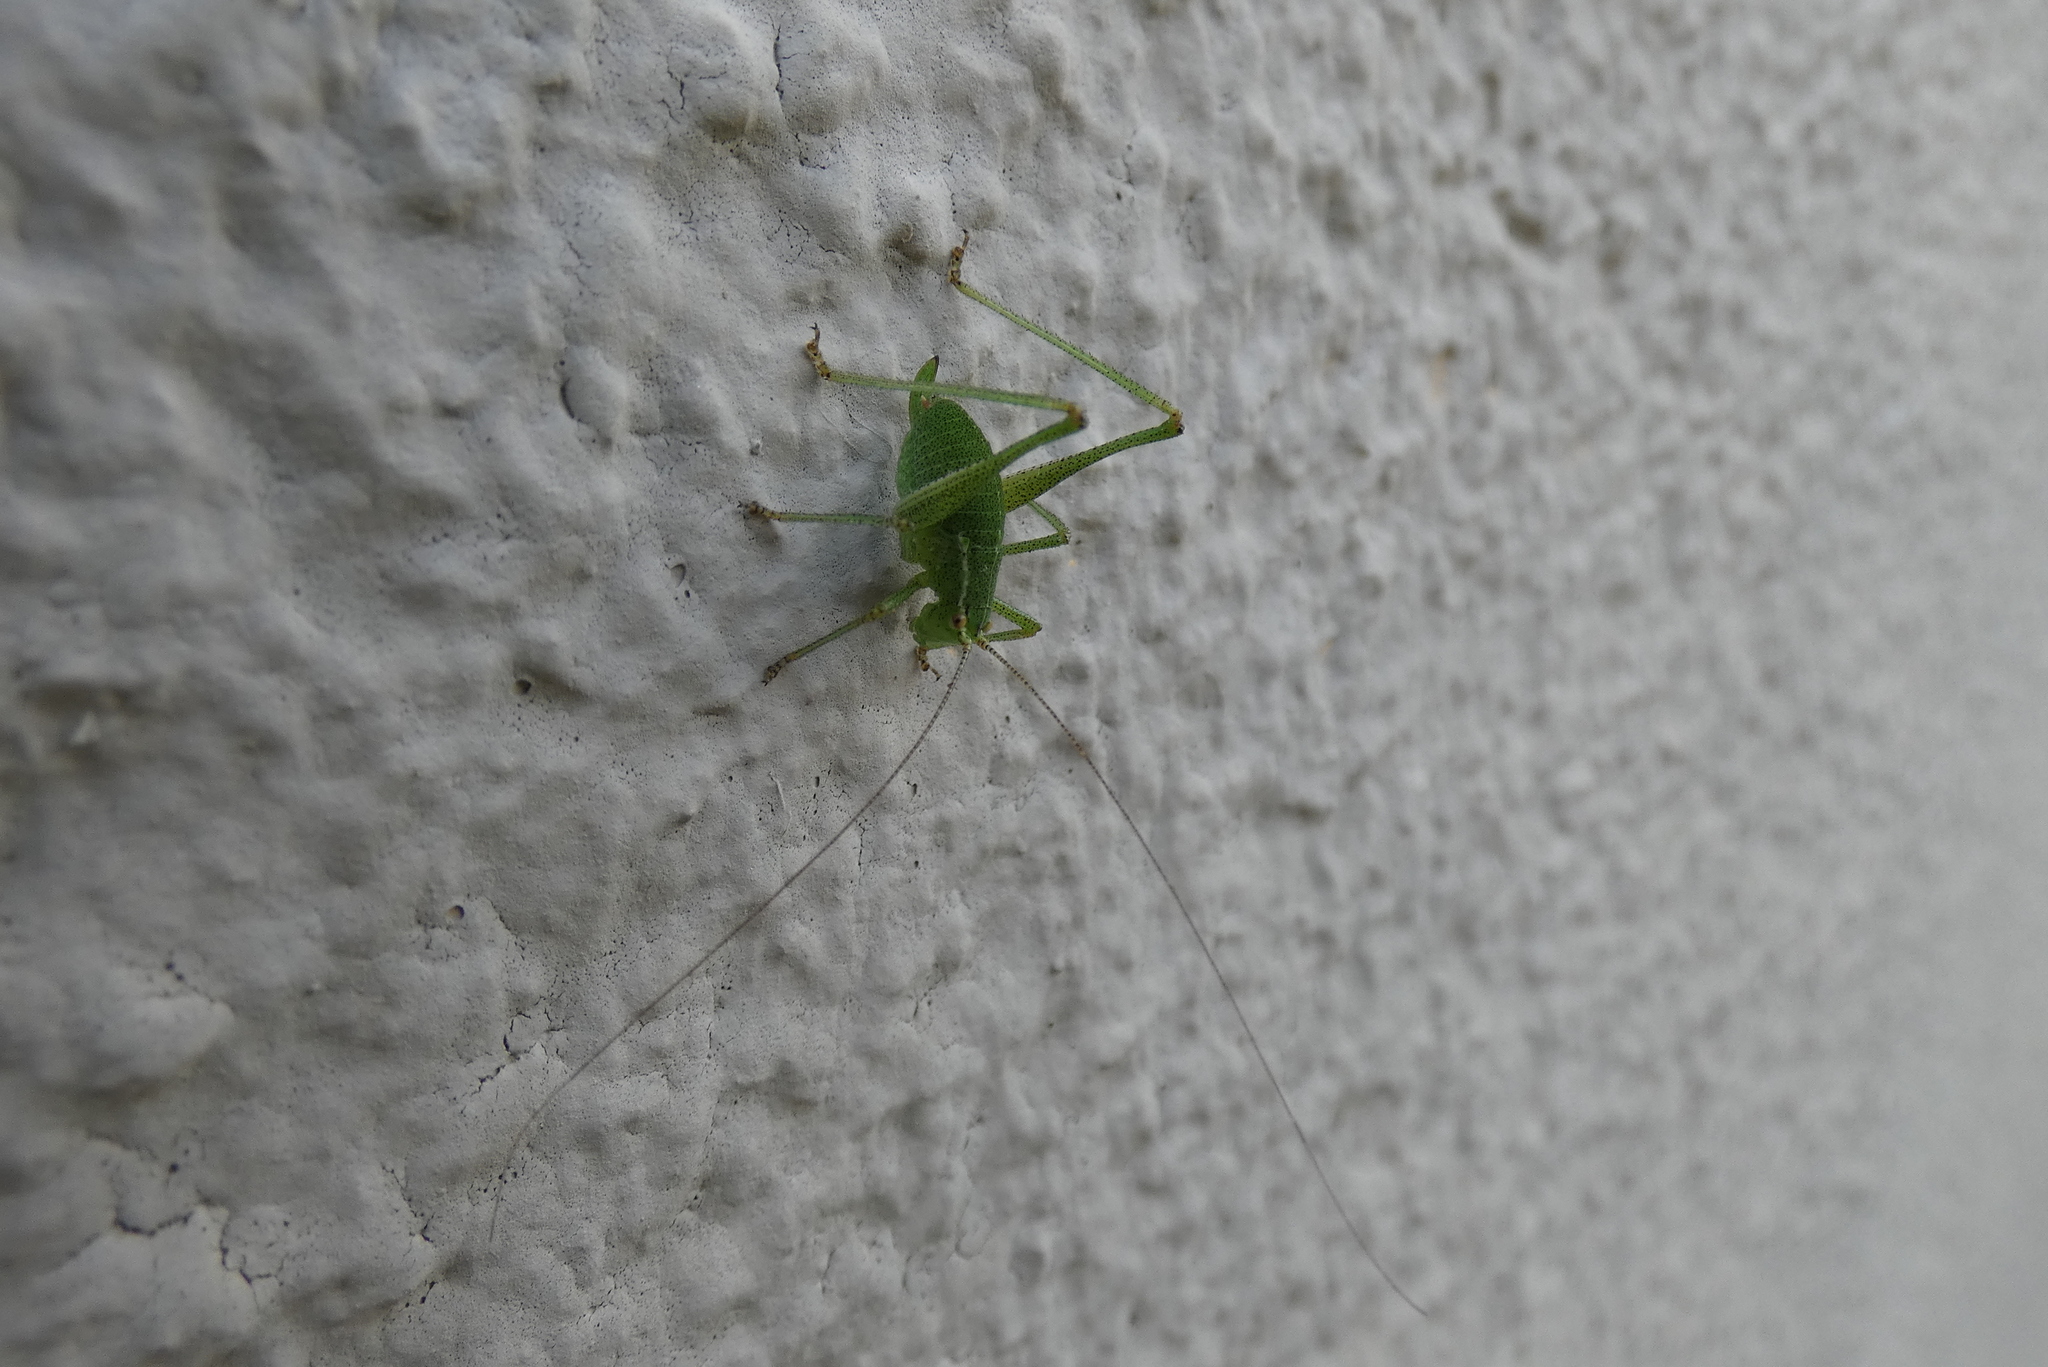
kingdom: Animalia
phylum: Arthropoda
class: Insecta
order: Orthoptera
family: Tettigoniidae
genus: Leptophyes
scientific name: Leptophyes punctatissima
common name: Speckled bush-cricket
